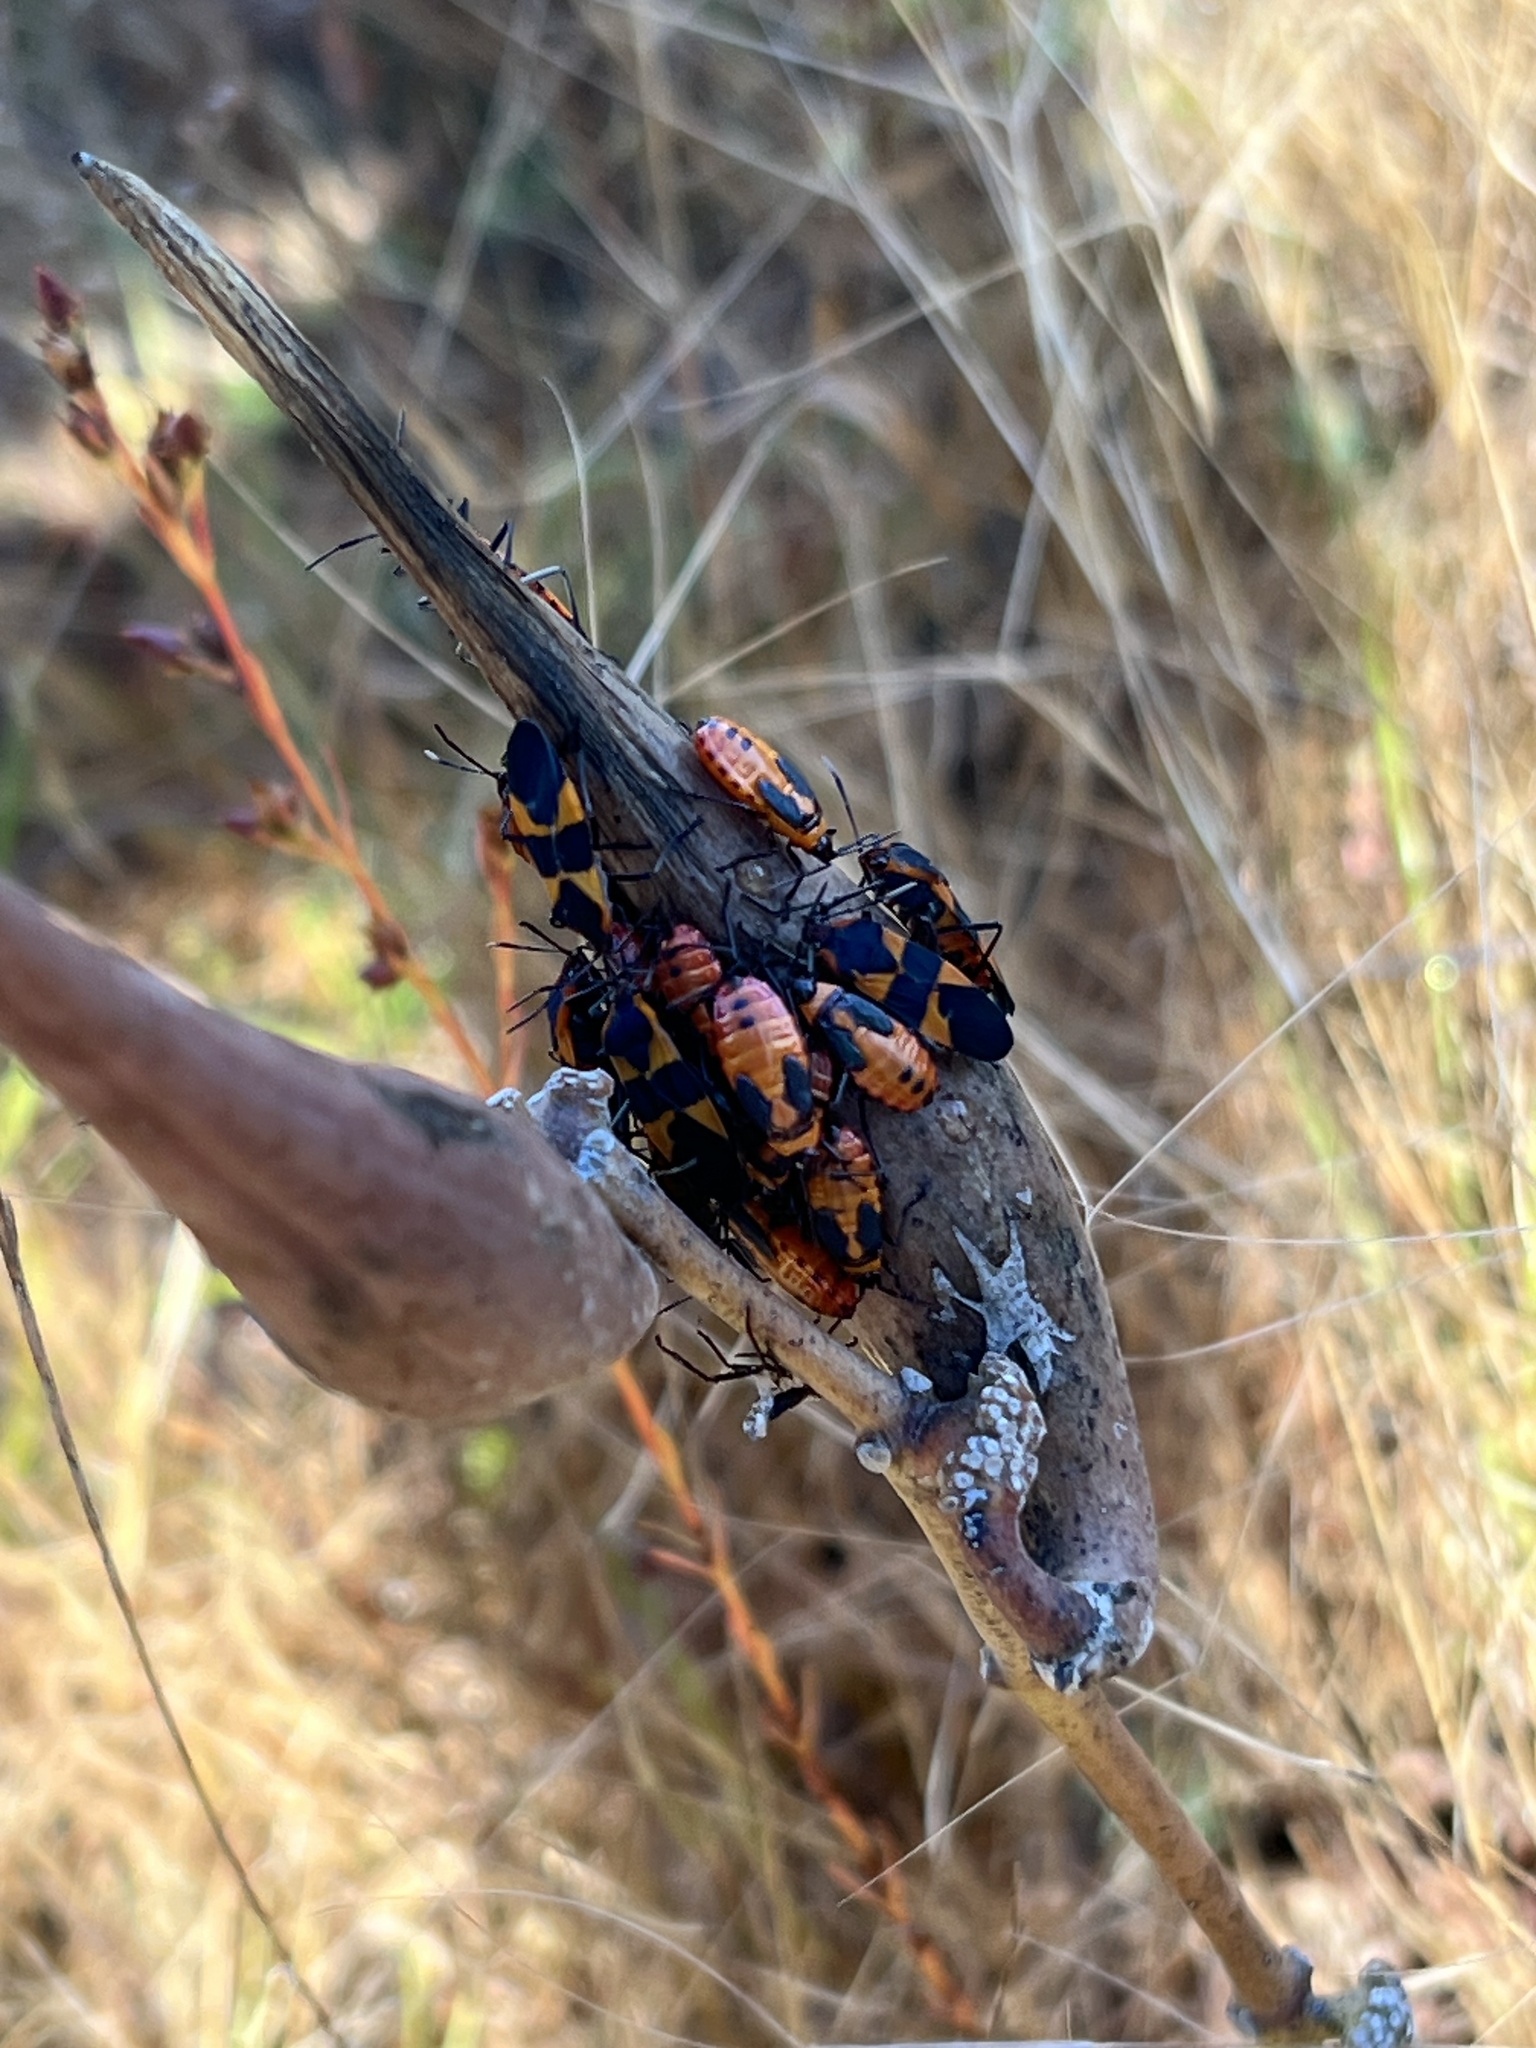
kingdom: Animalia
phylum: Arthropoda
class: Insecta
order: Hemiptera
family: Lygaeidae
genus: Oncopeltus
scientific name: Oncopeltus fasciatus
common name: Large milkweed bug
